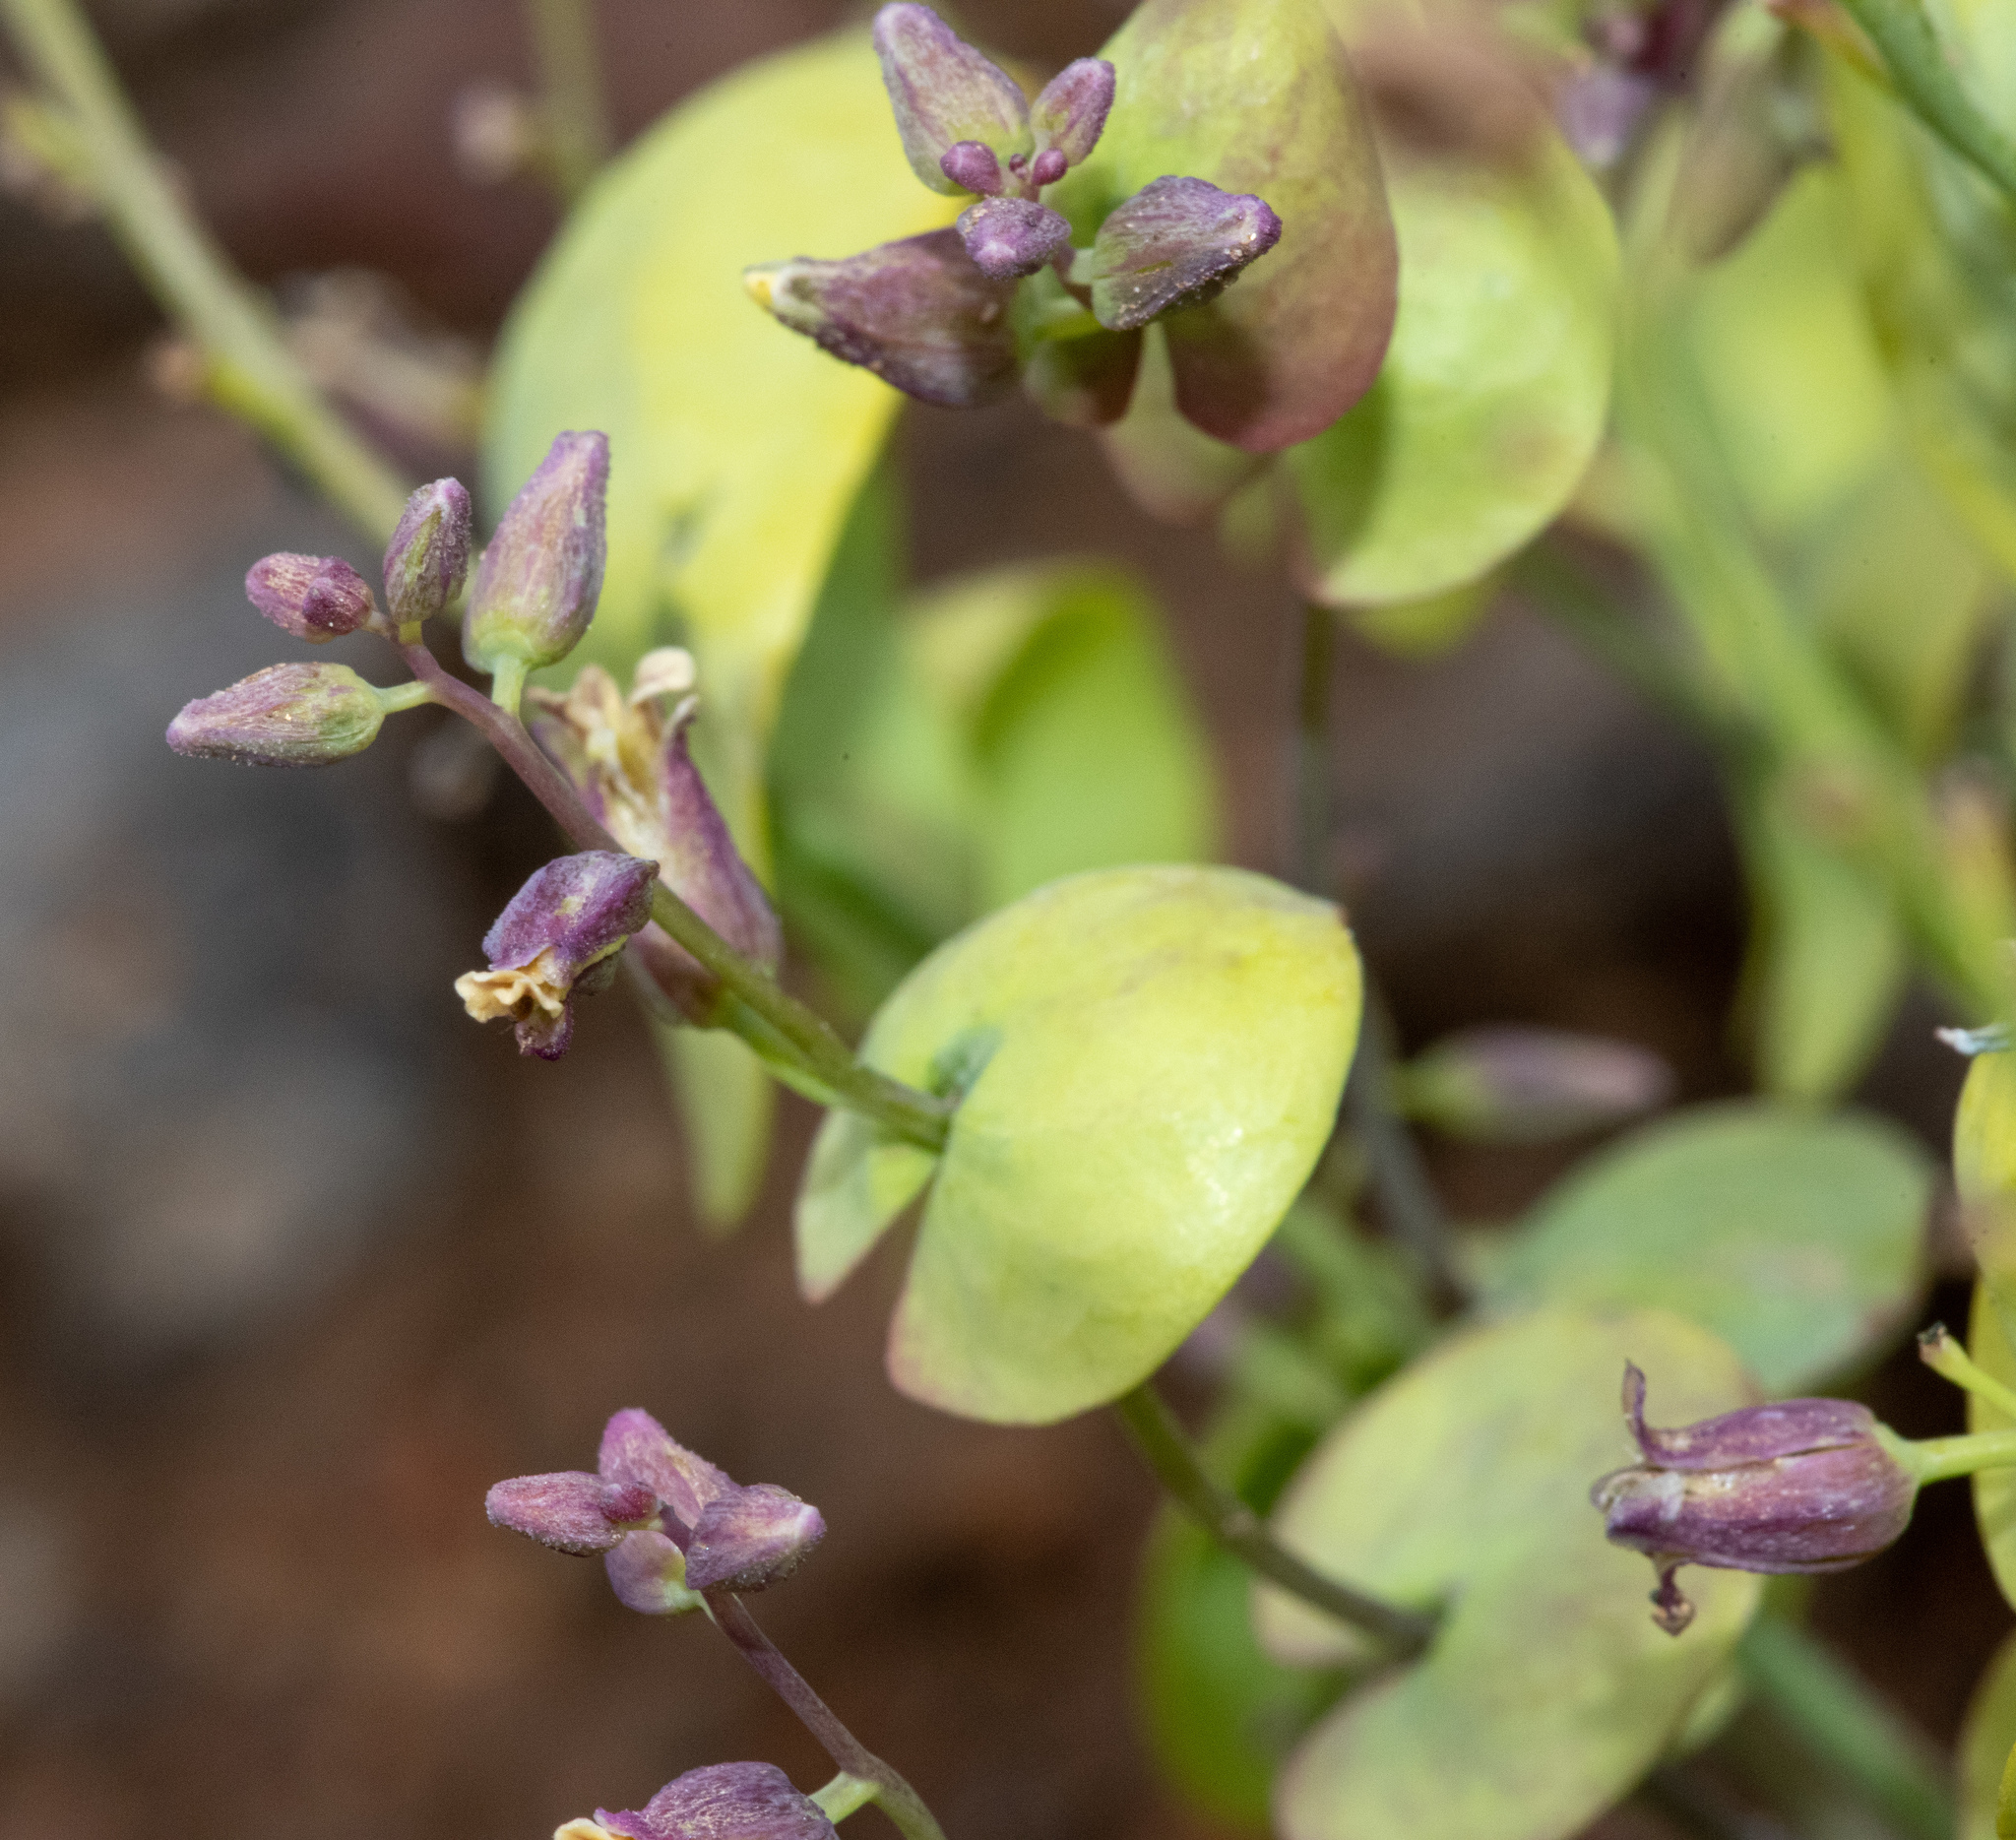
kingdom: Plantae
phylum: Tracheophyta
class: Magnoliopsida
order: Brassicales
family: Brassicaceae
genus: Streptanthus
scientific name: Streptanthus tortuosus
